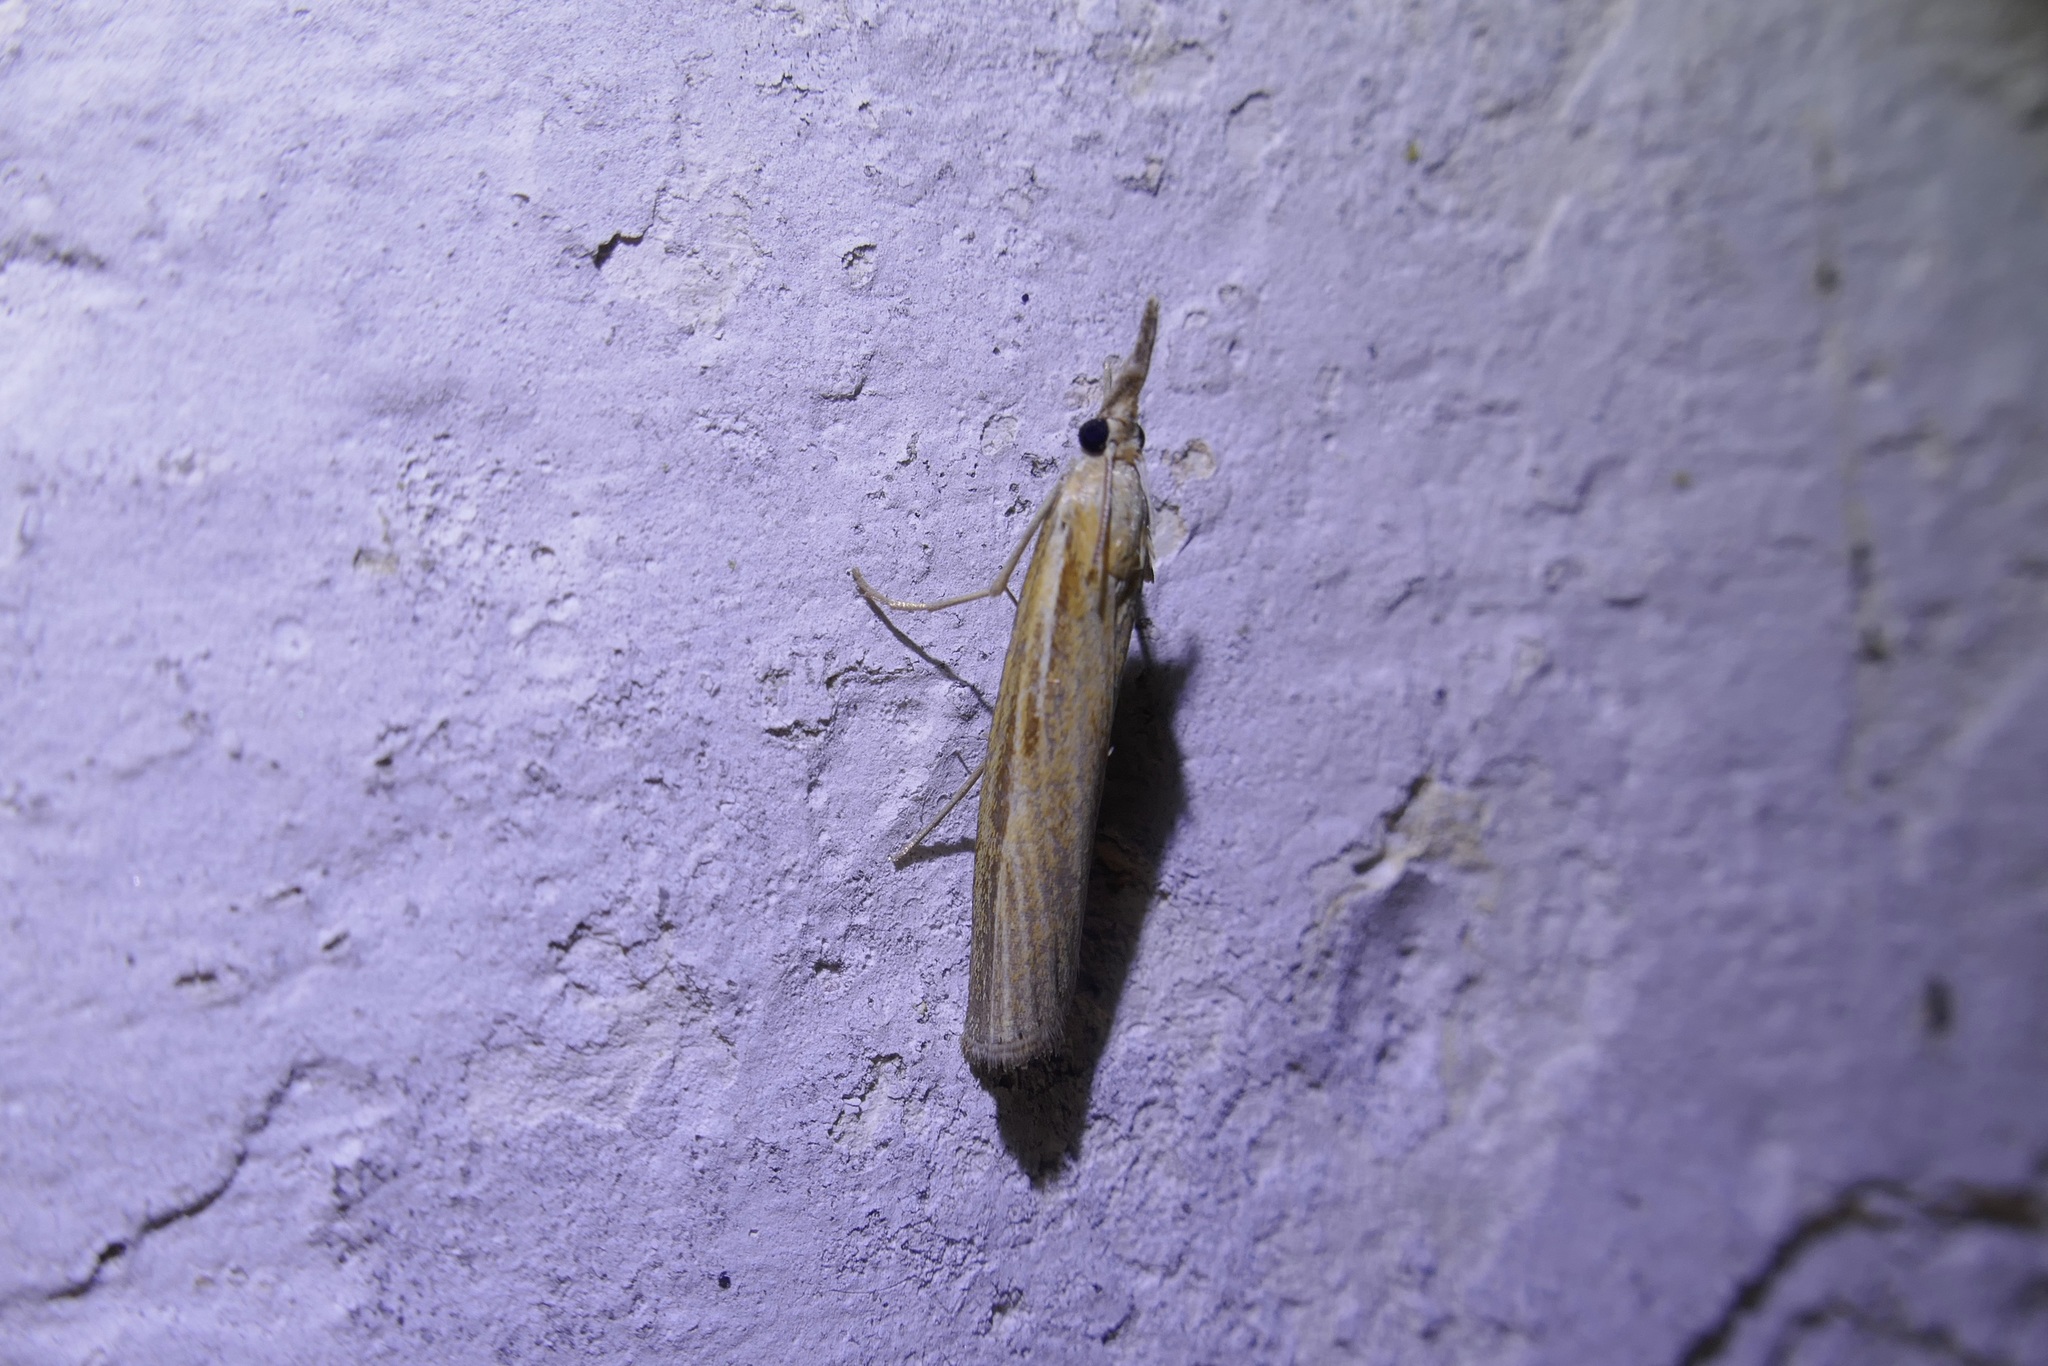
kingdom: Animalia
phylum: Arthropoda
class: Insecta
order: Lepidoptera
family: Crambidae
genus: Agriphila
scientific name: Agriphila tristellus
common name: Common grass-veneer
